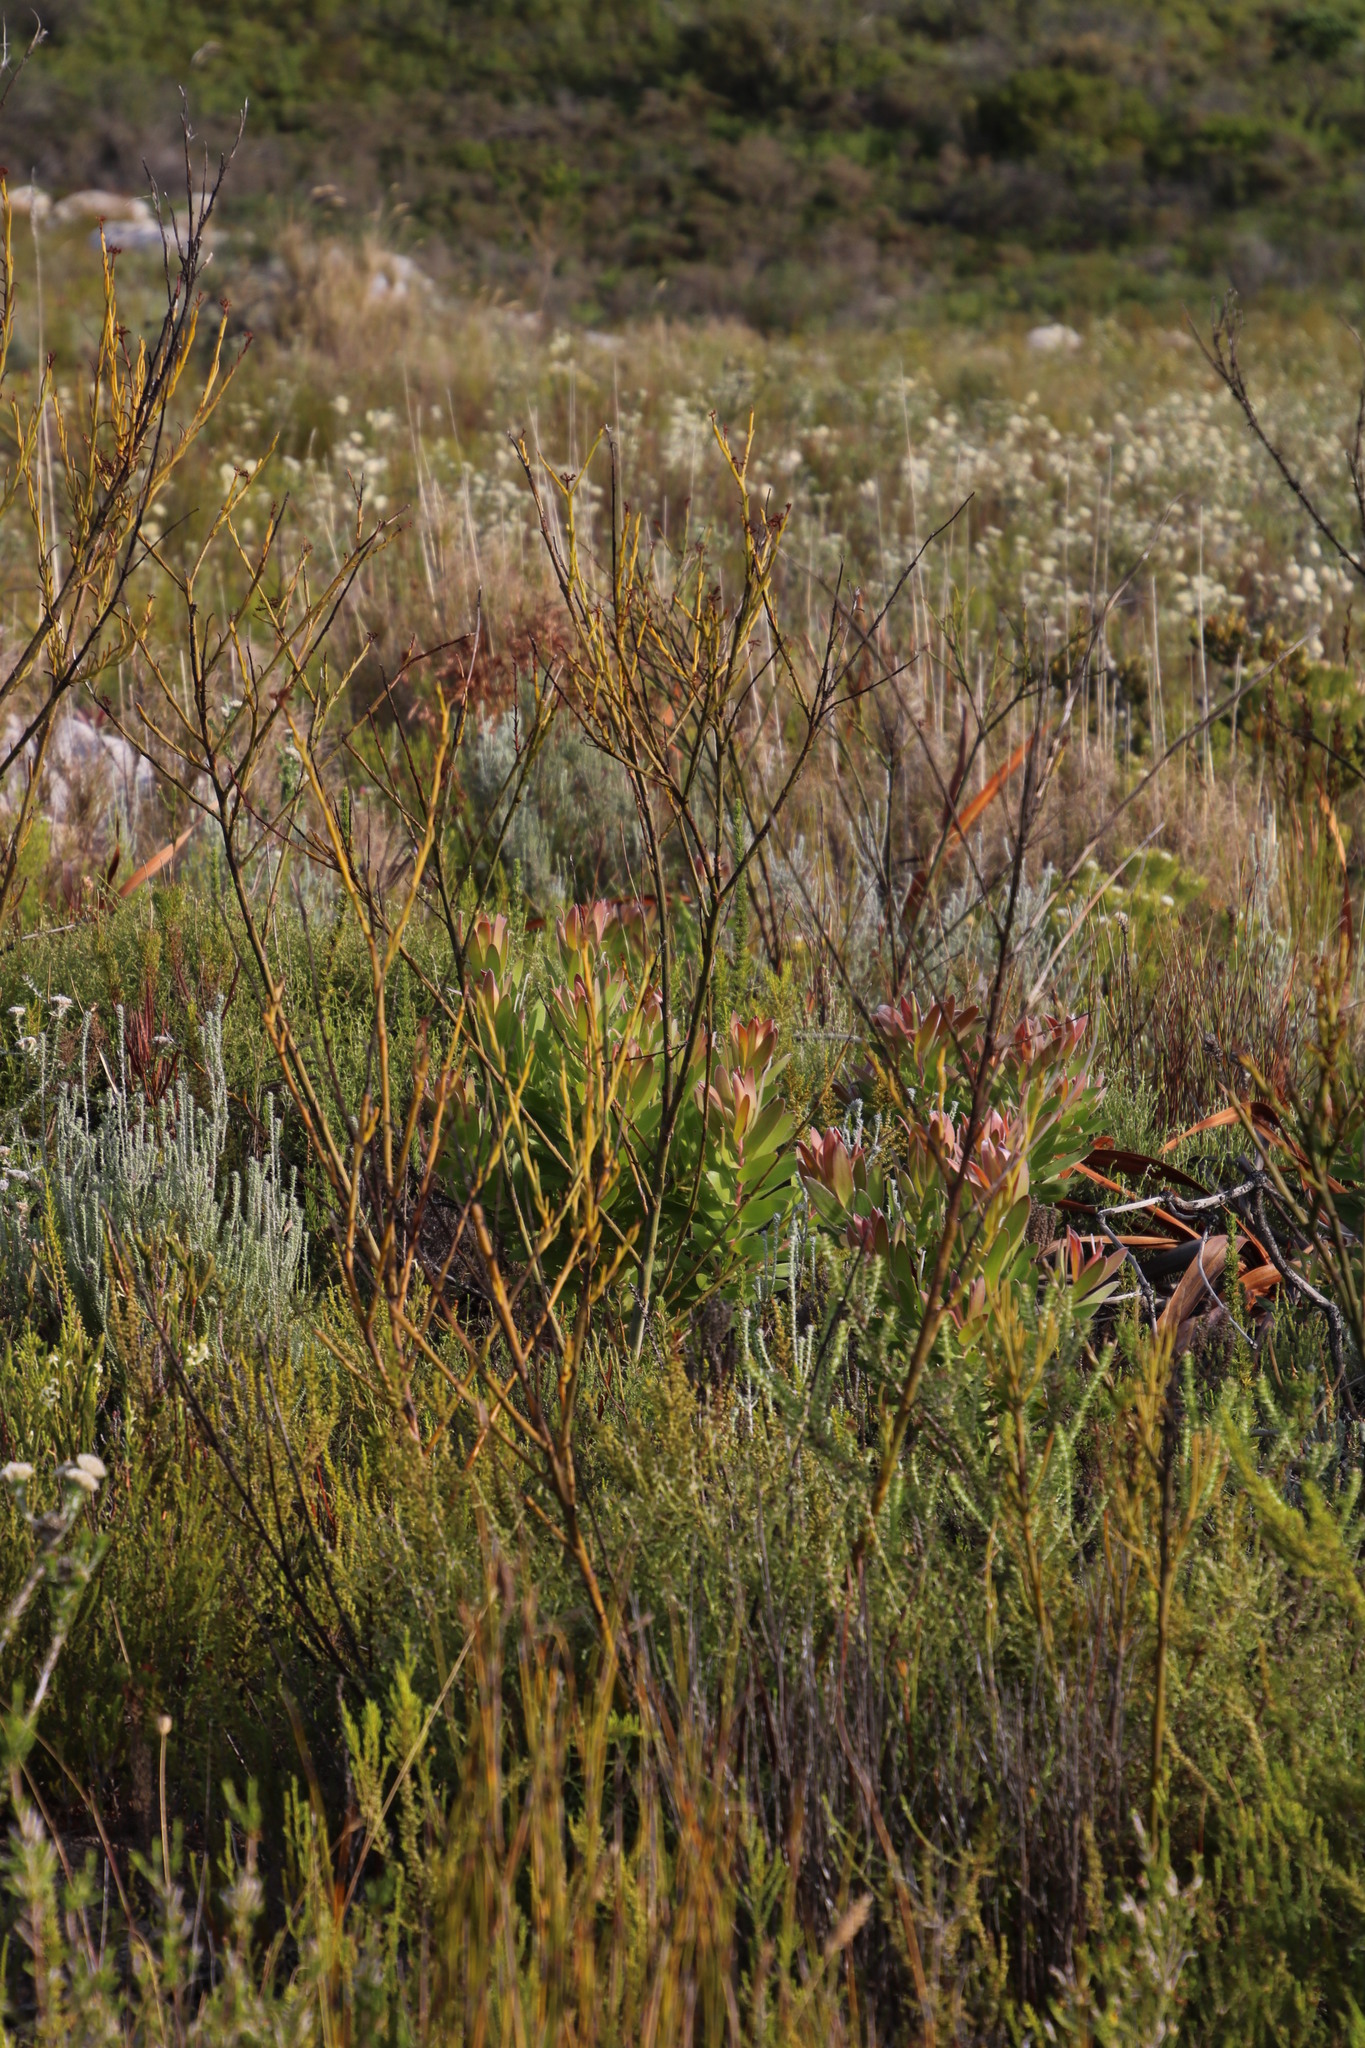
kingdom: Plantae
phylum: Tracheophyta
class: Magnoliopsida
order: Santalales
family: Thesiaceae
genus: Thesium
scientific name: Thesium strictum
